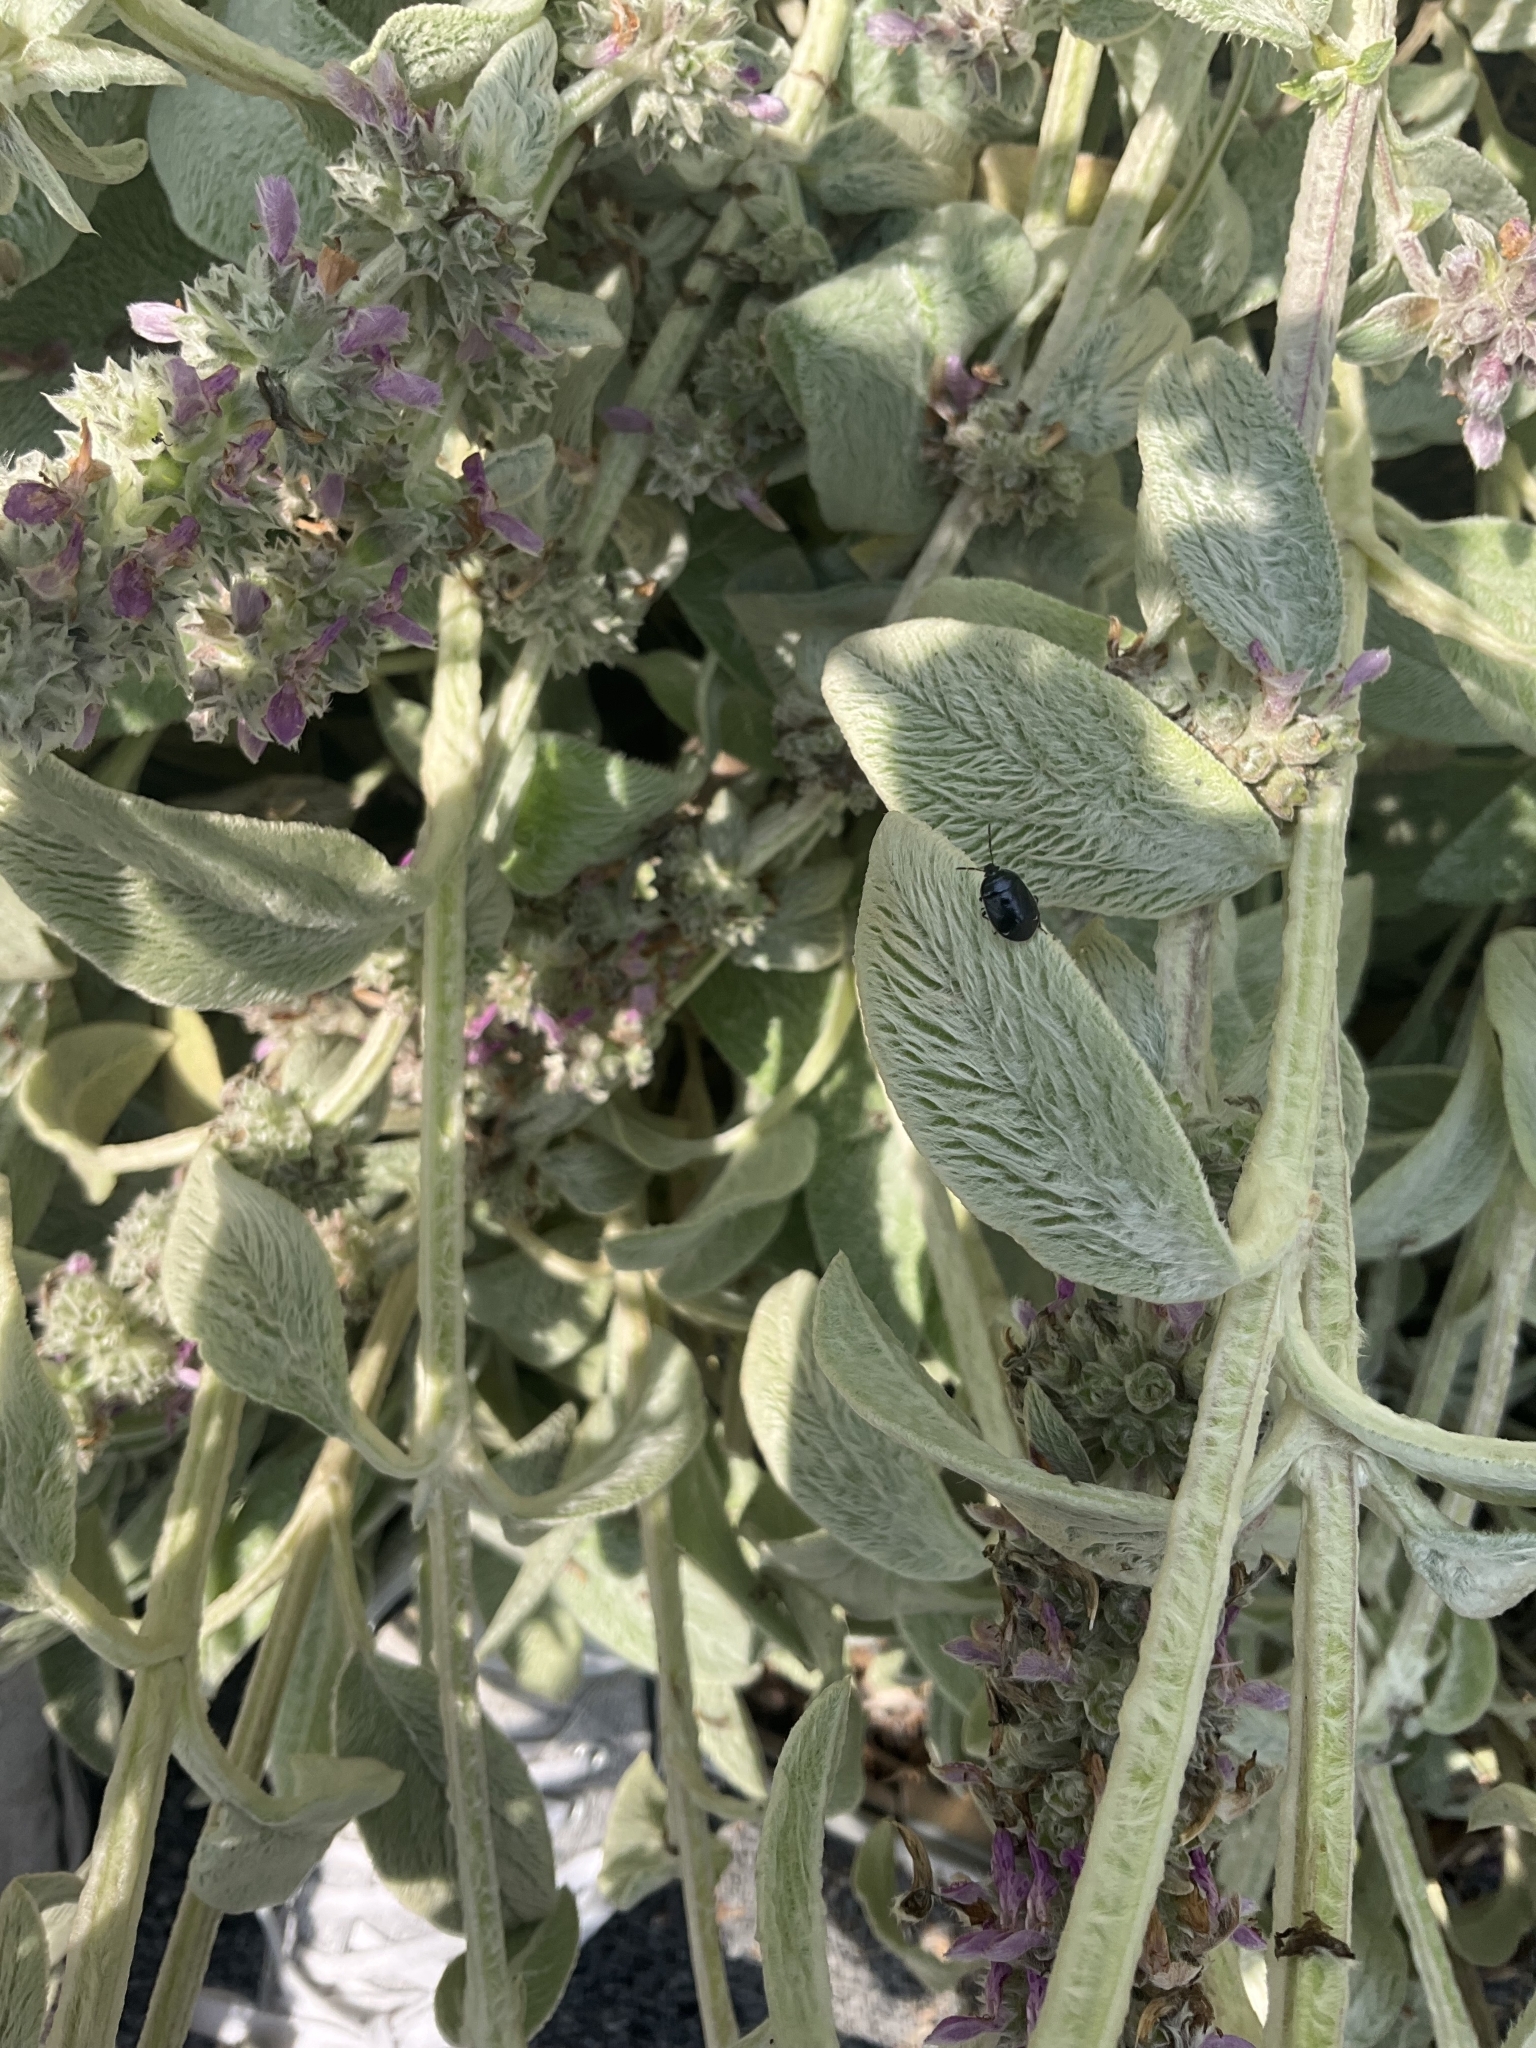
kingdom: Animalia
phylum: Arthropoda
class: Insecta
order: Hemiptera
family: Cydnidae
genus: Sehirus
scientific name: Sehirus cinctus
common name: White-margined burrower bug
